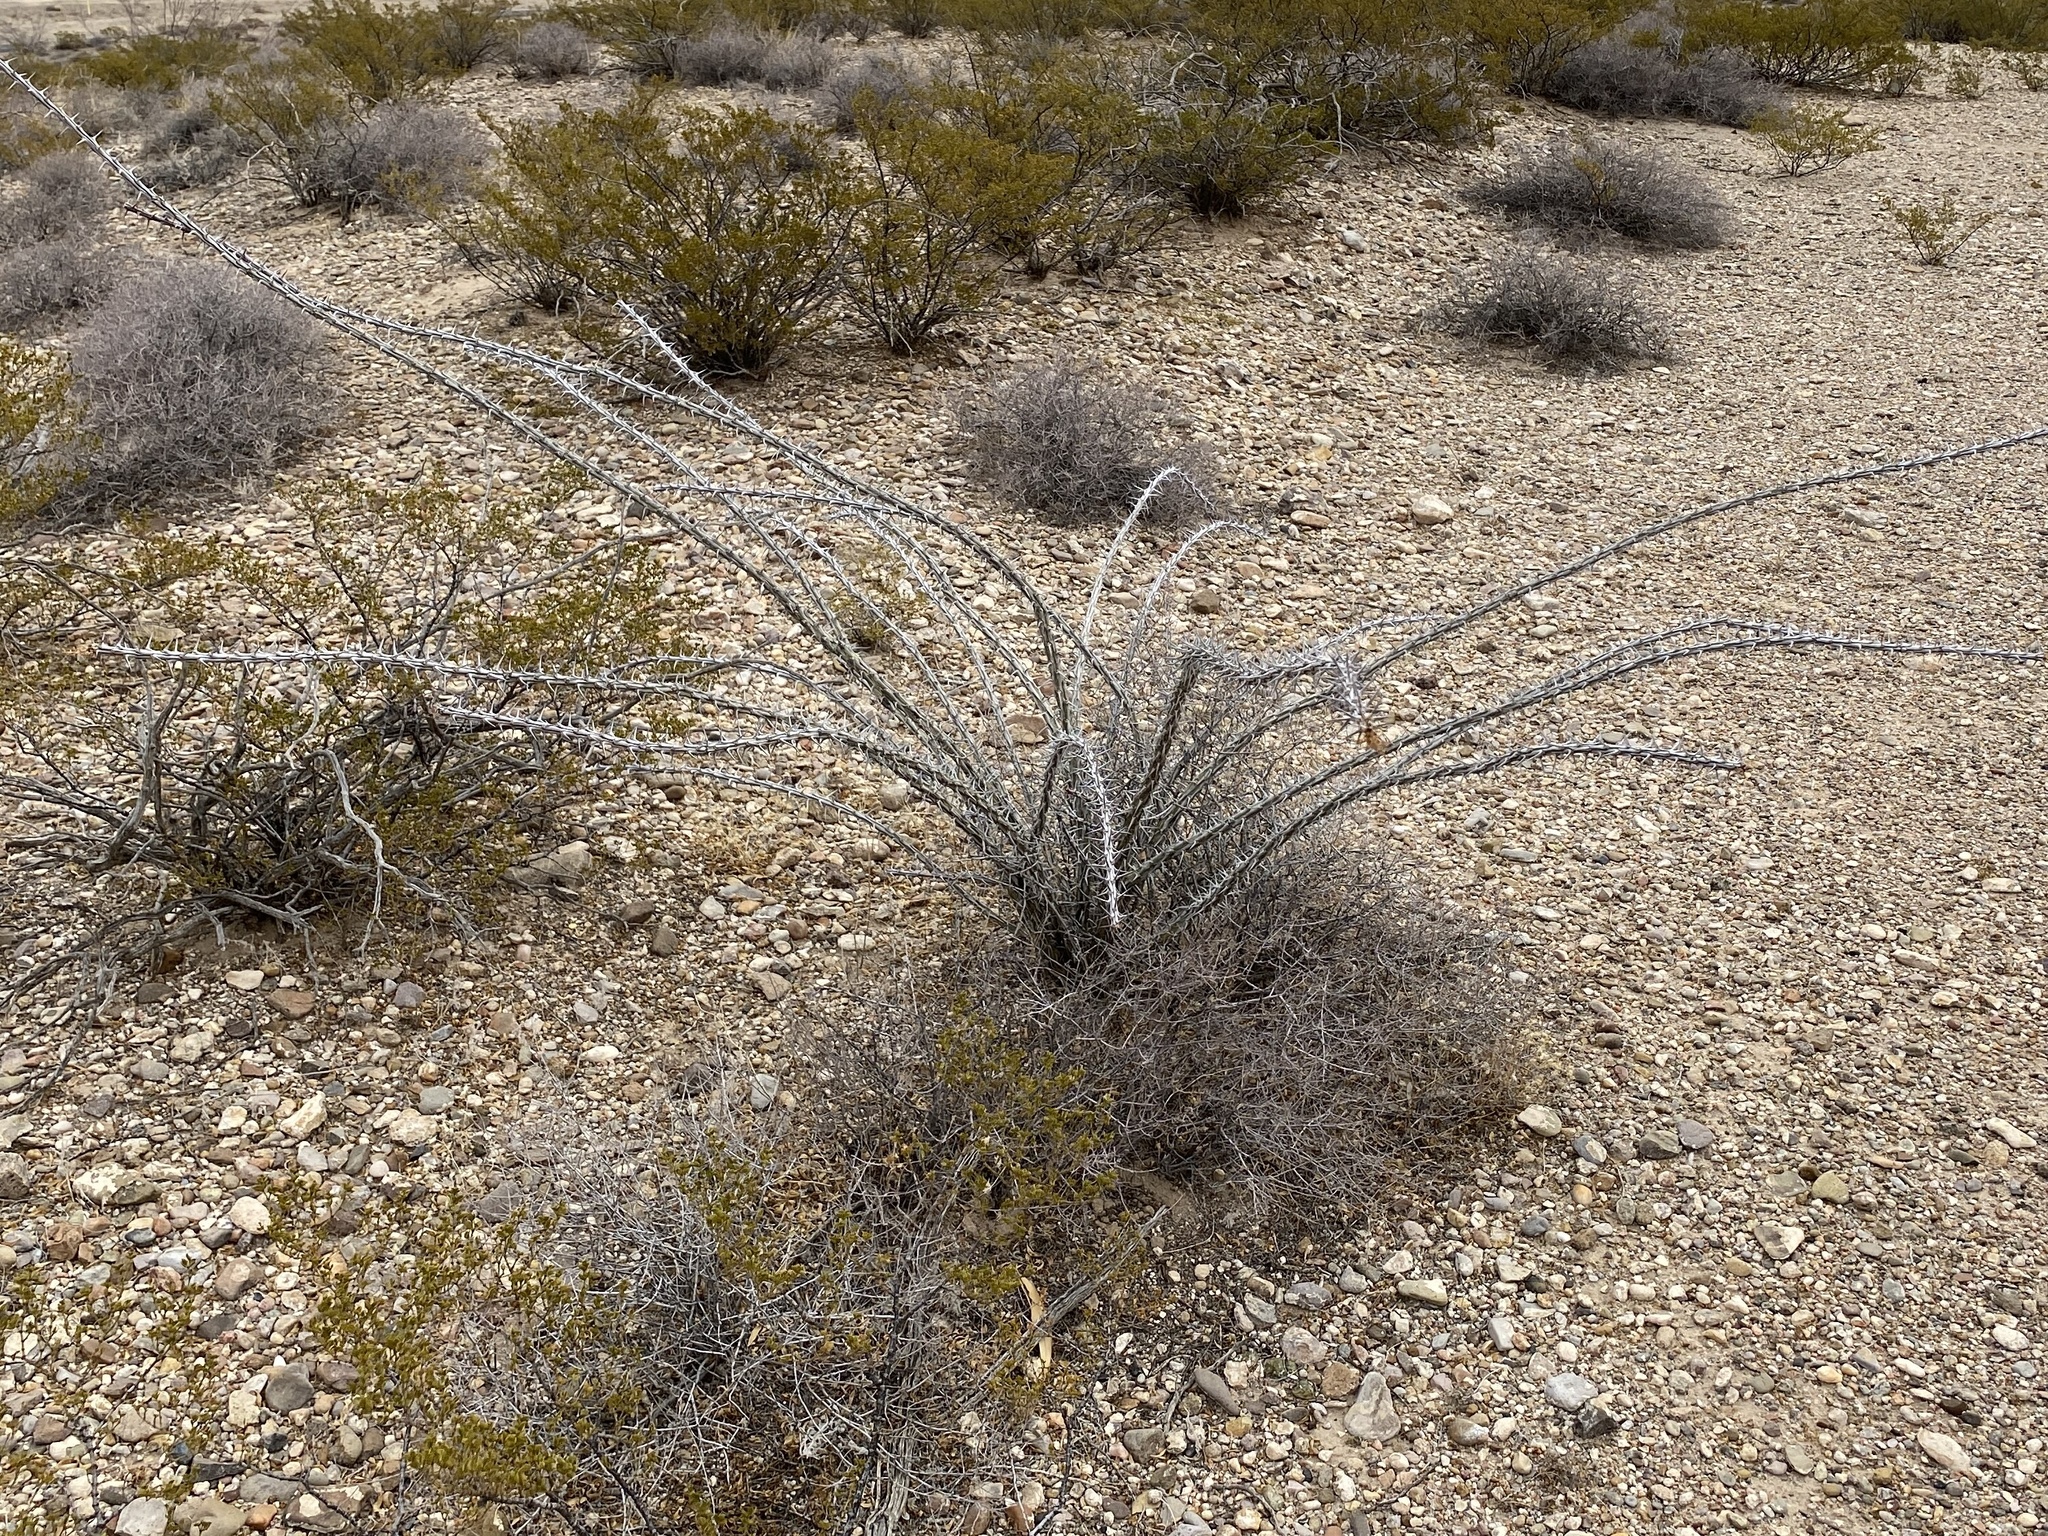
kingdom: Plantae
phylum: Tracheophyta
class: Magnoliopsida
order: Ericales
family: Fouquieriaceae
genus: Fouquieria
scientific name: Fouquieria splendens
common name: Vine-cactus
